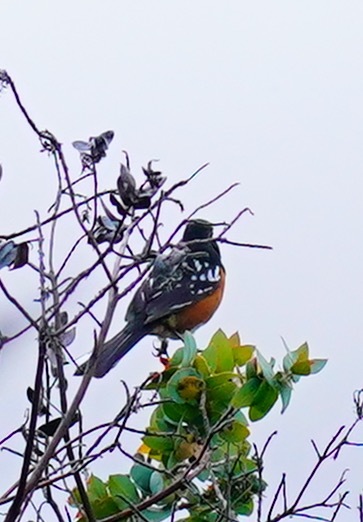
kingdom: Animalia
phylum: Chordata
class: Aves
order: Passeriformes
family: Passerellidae
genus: Pipilo
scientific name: Pipilo maculatus
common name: Spotted towhee
